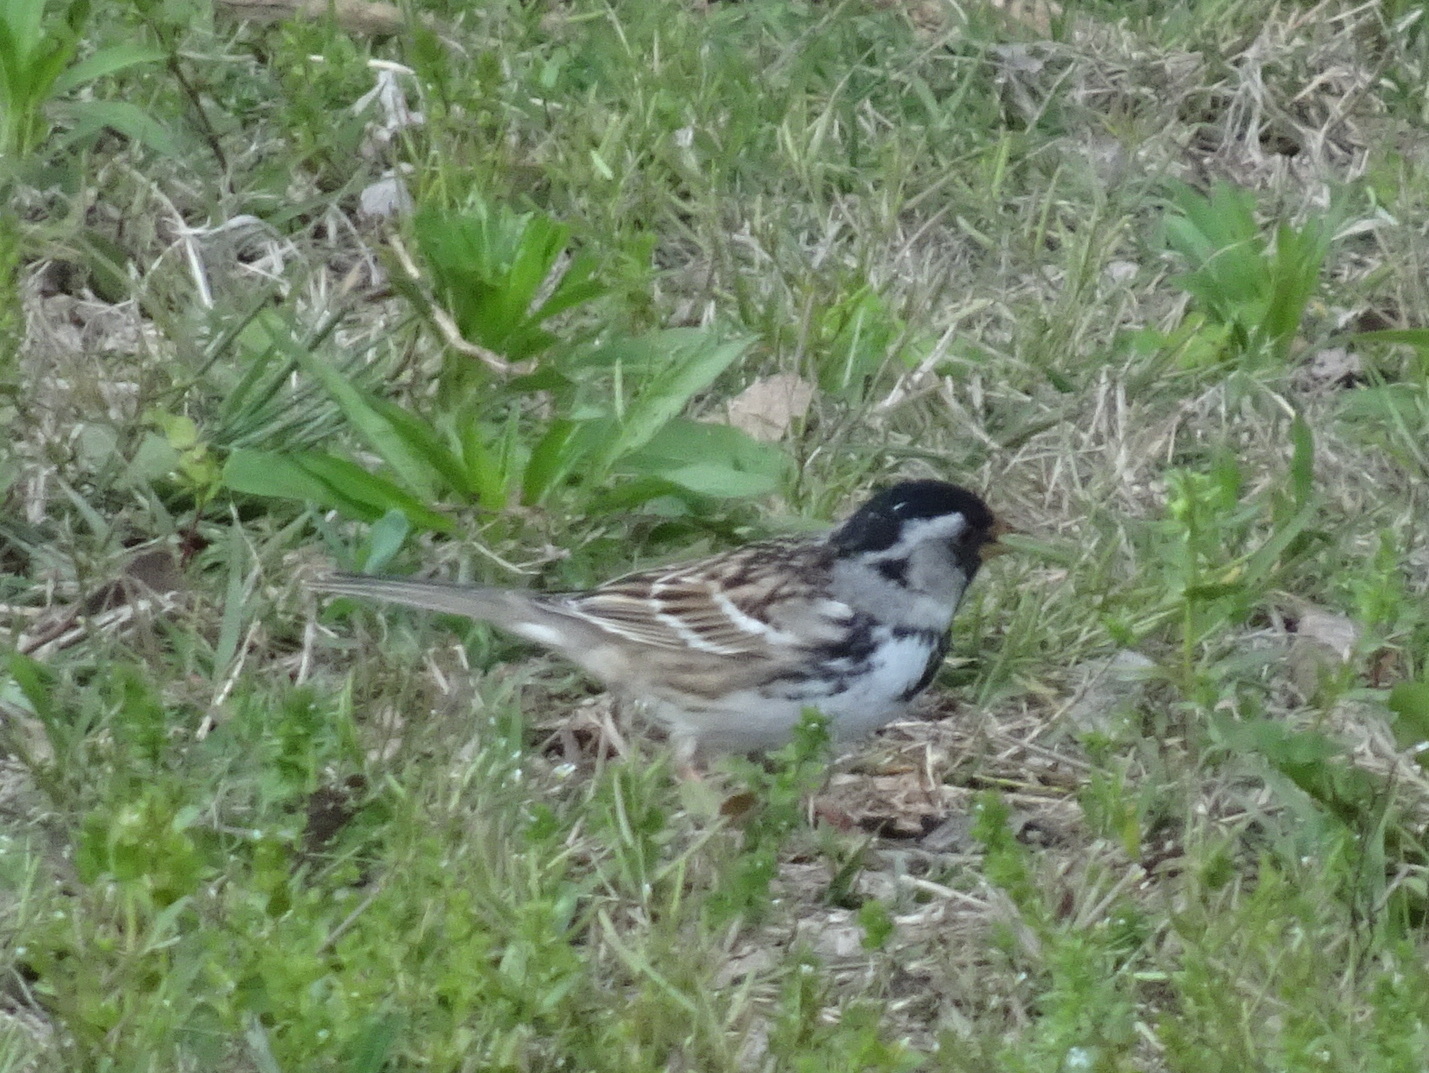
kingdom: Animalia
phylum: Chordata
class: Aves
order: Passeriformes
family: Passerellidae
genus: Zonotrichia
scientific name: Zonotrichia querula
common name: Harris's sparrow
